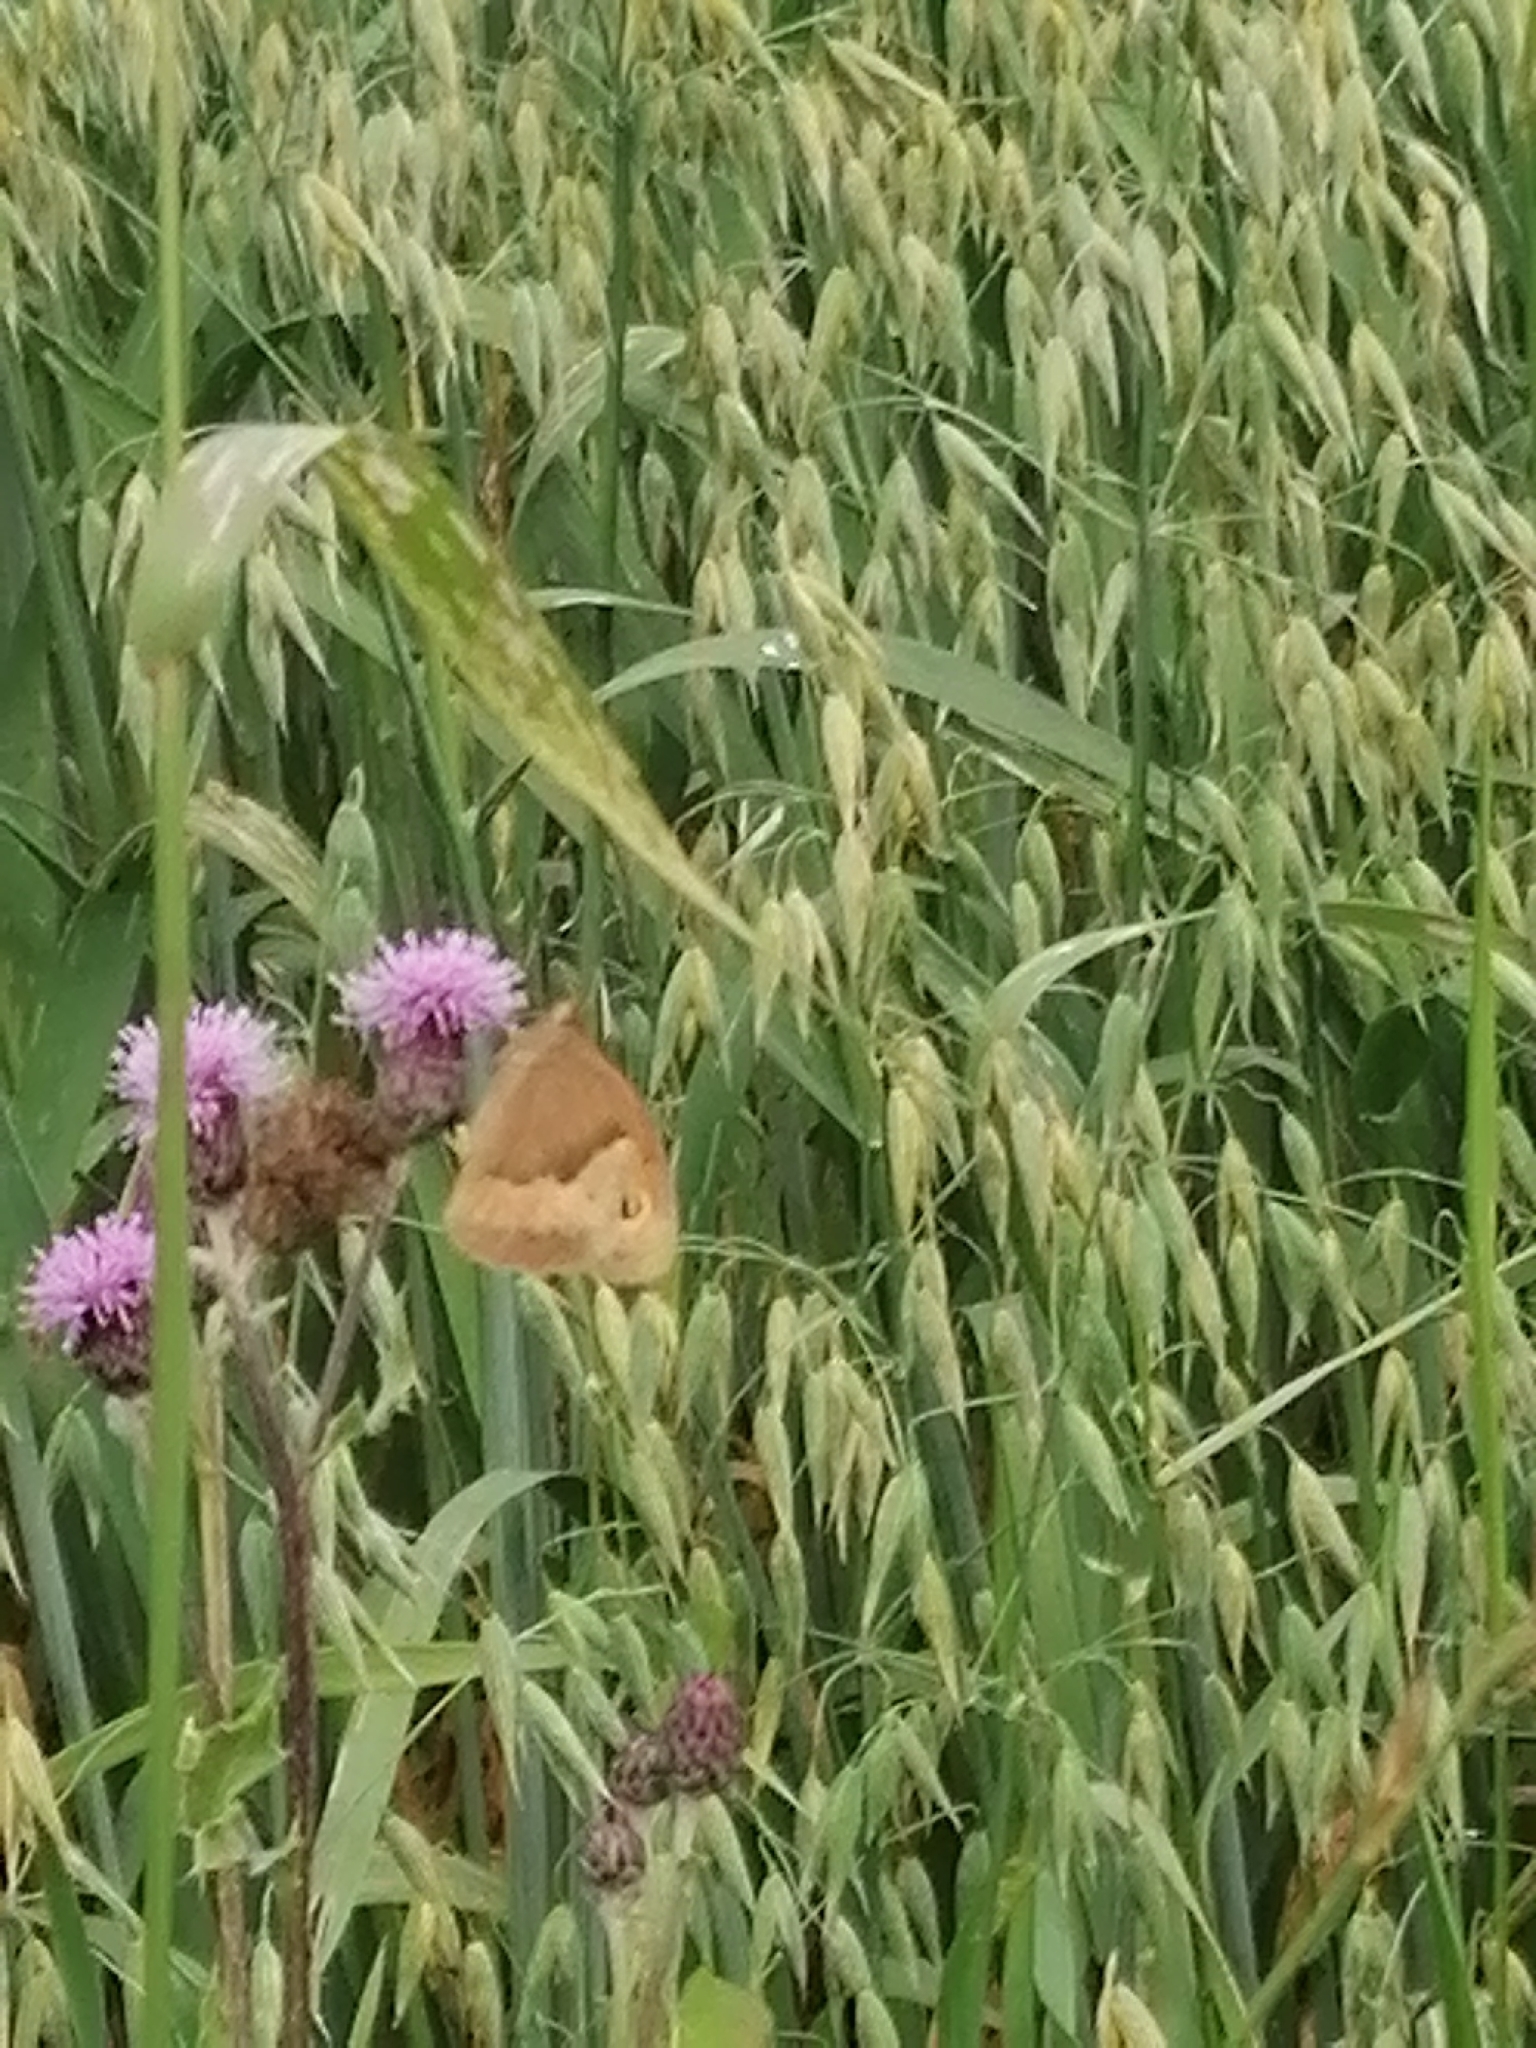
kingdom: Animalia
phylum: Arthropoda
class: Insecta
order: Lepidoptera
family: Nymphalidae
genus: Maniola
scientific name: Maniola jurtina
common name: Meadow brown
